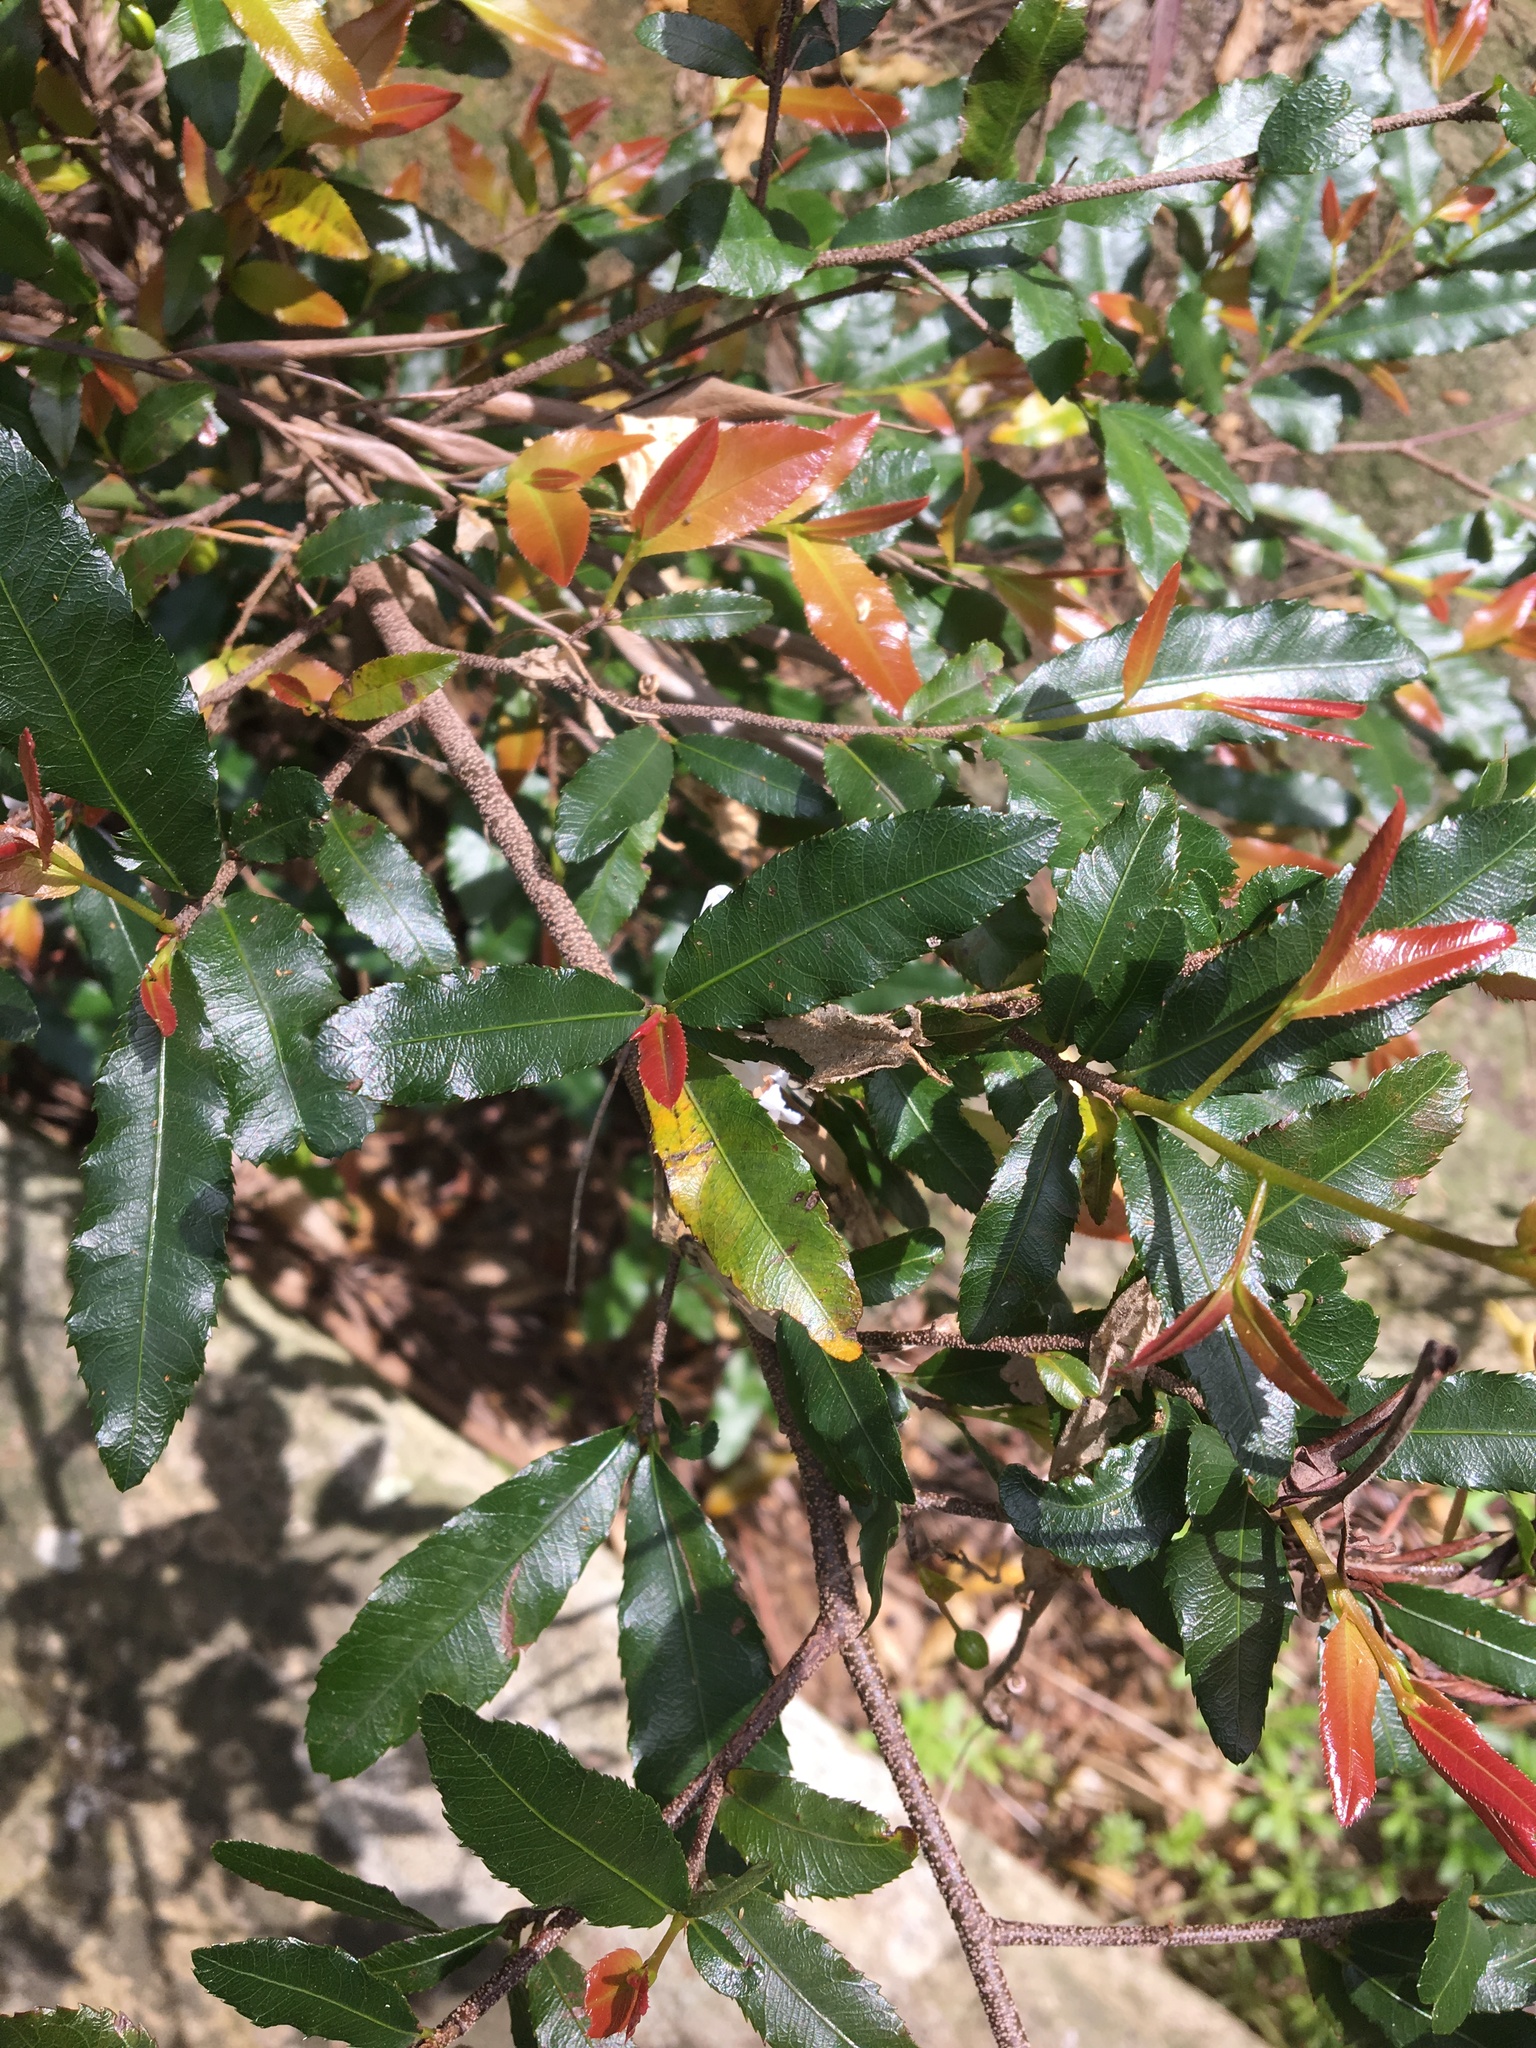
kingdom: Plantae
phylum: Tracheophyta
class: Magnoliopsida
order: Malpighiales
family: Ochnaceae
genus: Ochna
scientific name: Ochna serrulata
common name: Mickey mouse plant
